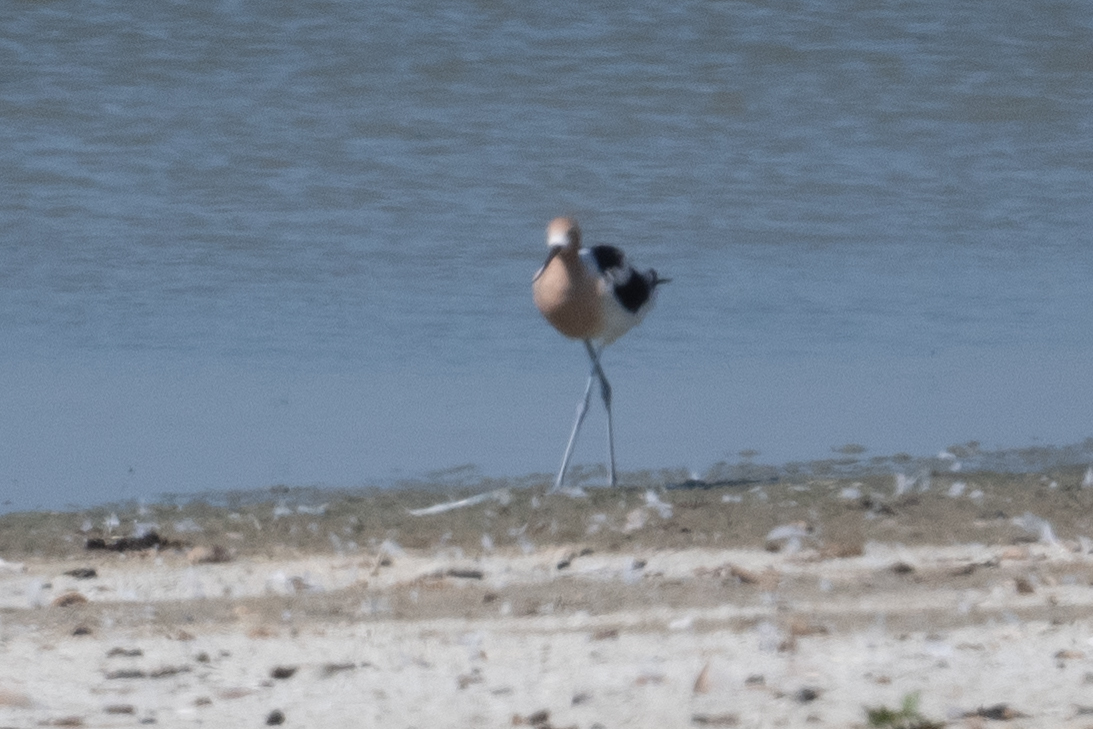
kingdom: Animalia
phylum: Chordata
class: Aves
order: Charadriiformes
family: Recurvirostridae
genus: Recurvirostra
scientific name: Recurvirostra americana
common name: American avocet
